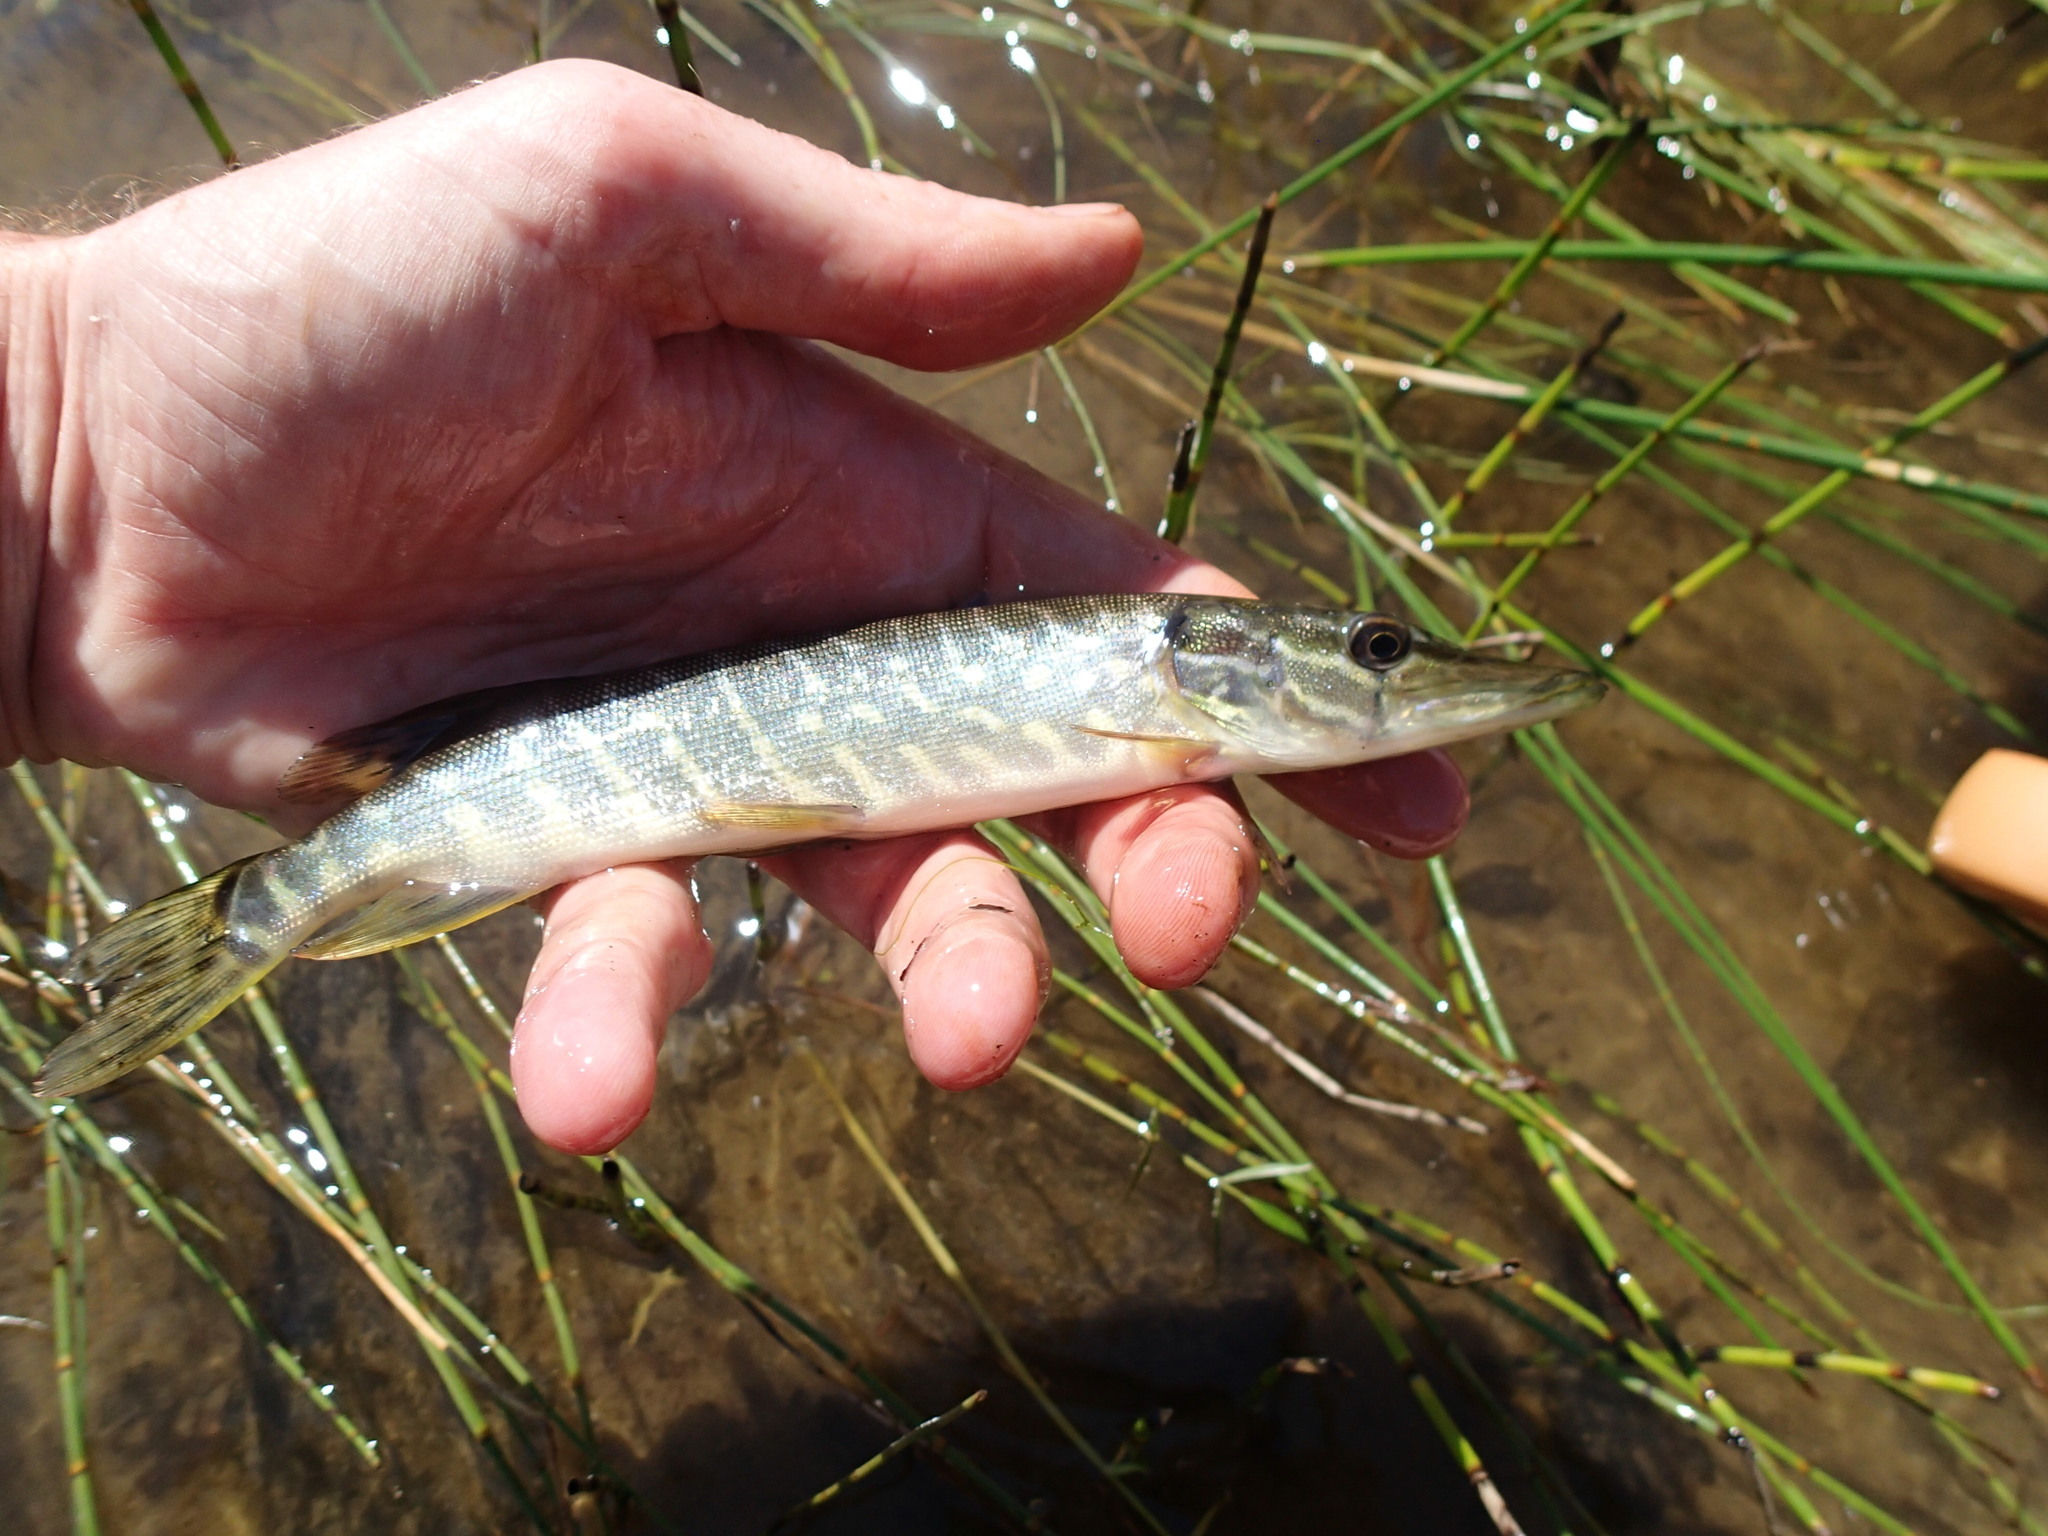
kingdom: Animalia
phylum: Chordata
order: Esociformes
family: Esocidae
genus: Esox
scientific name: Esox lucius
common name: Northern pike
